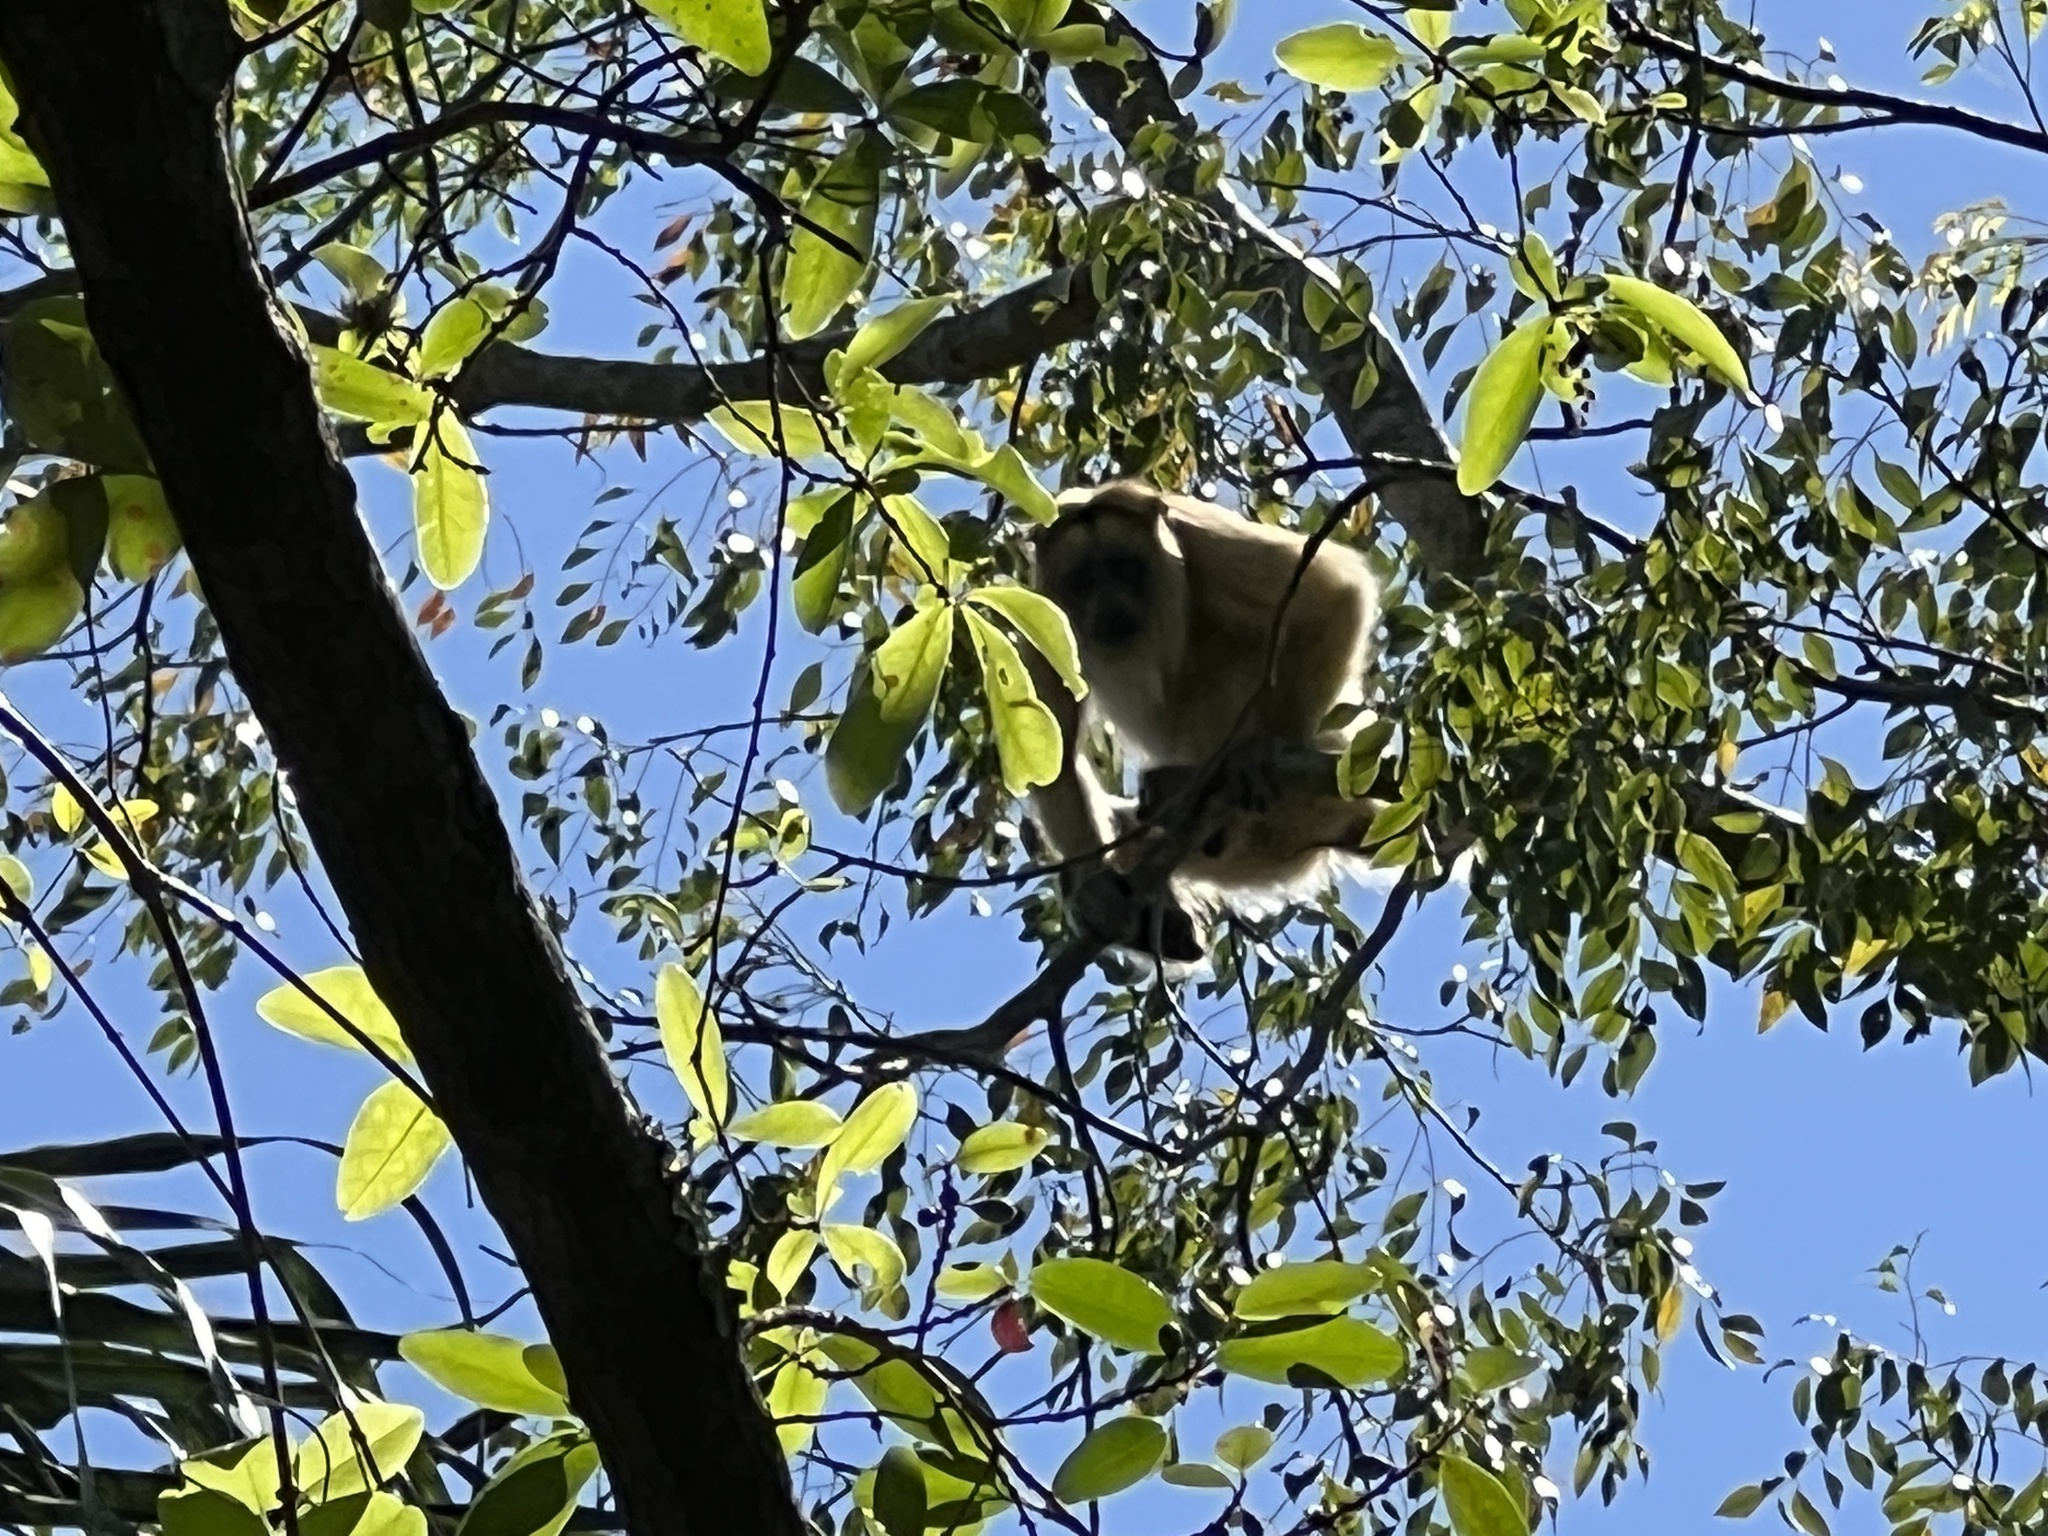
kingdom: Animalia
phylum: Chordata
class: Mammalia
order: Primates
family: Atelidae
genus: Alouatta
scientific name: Alouatta caraya
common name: Black howler
